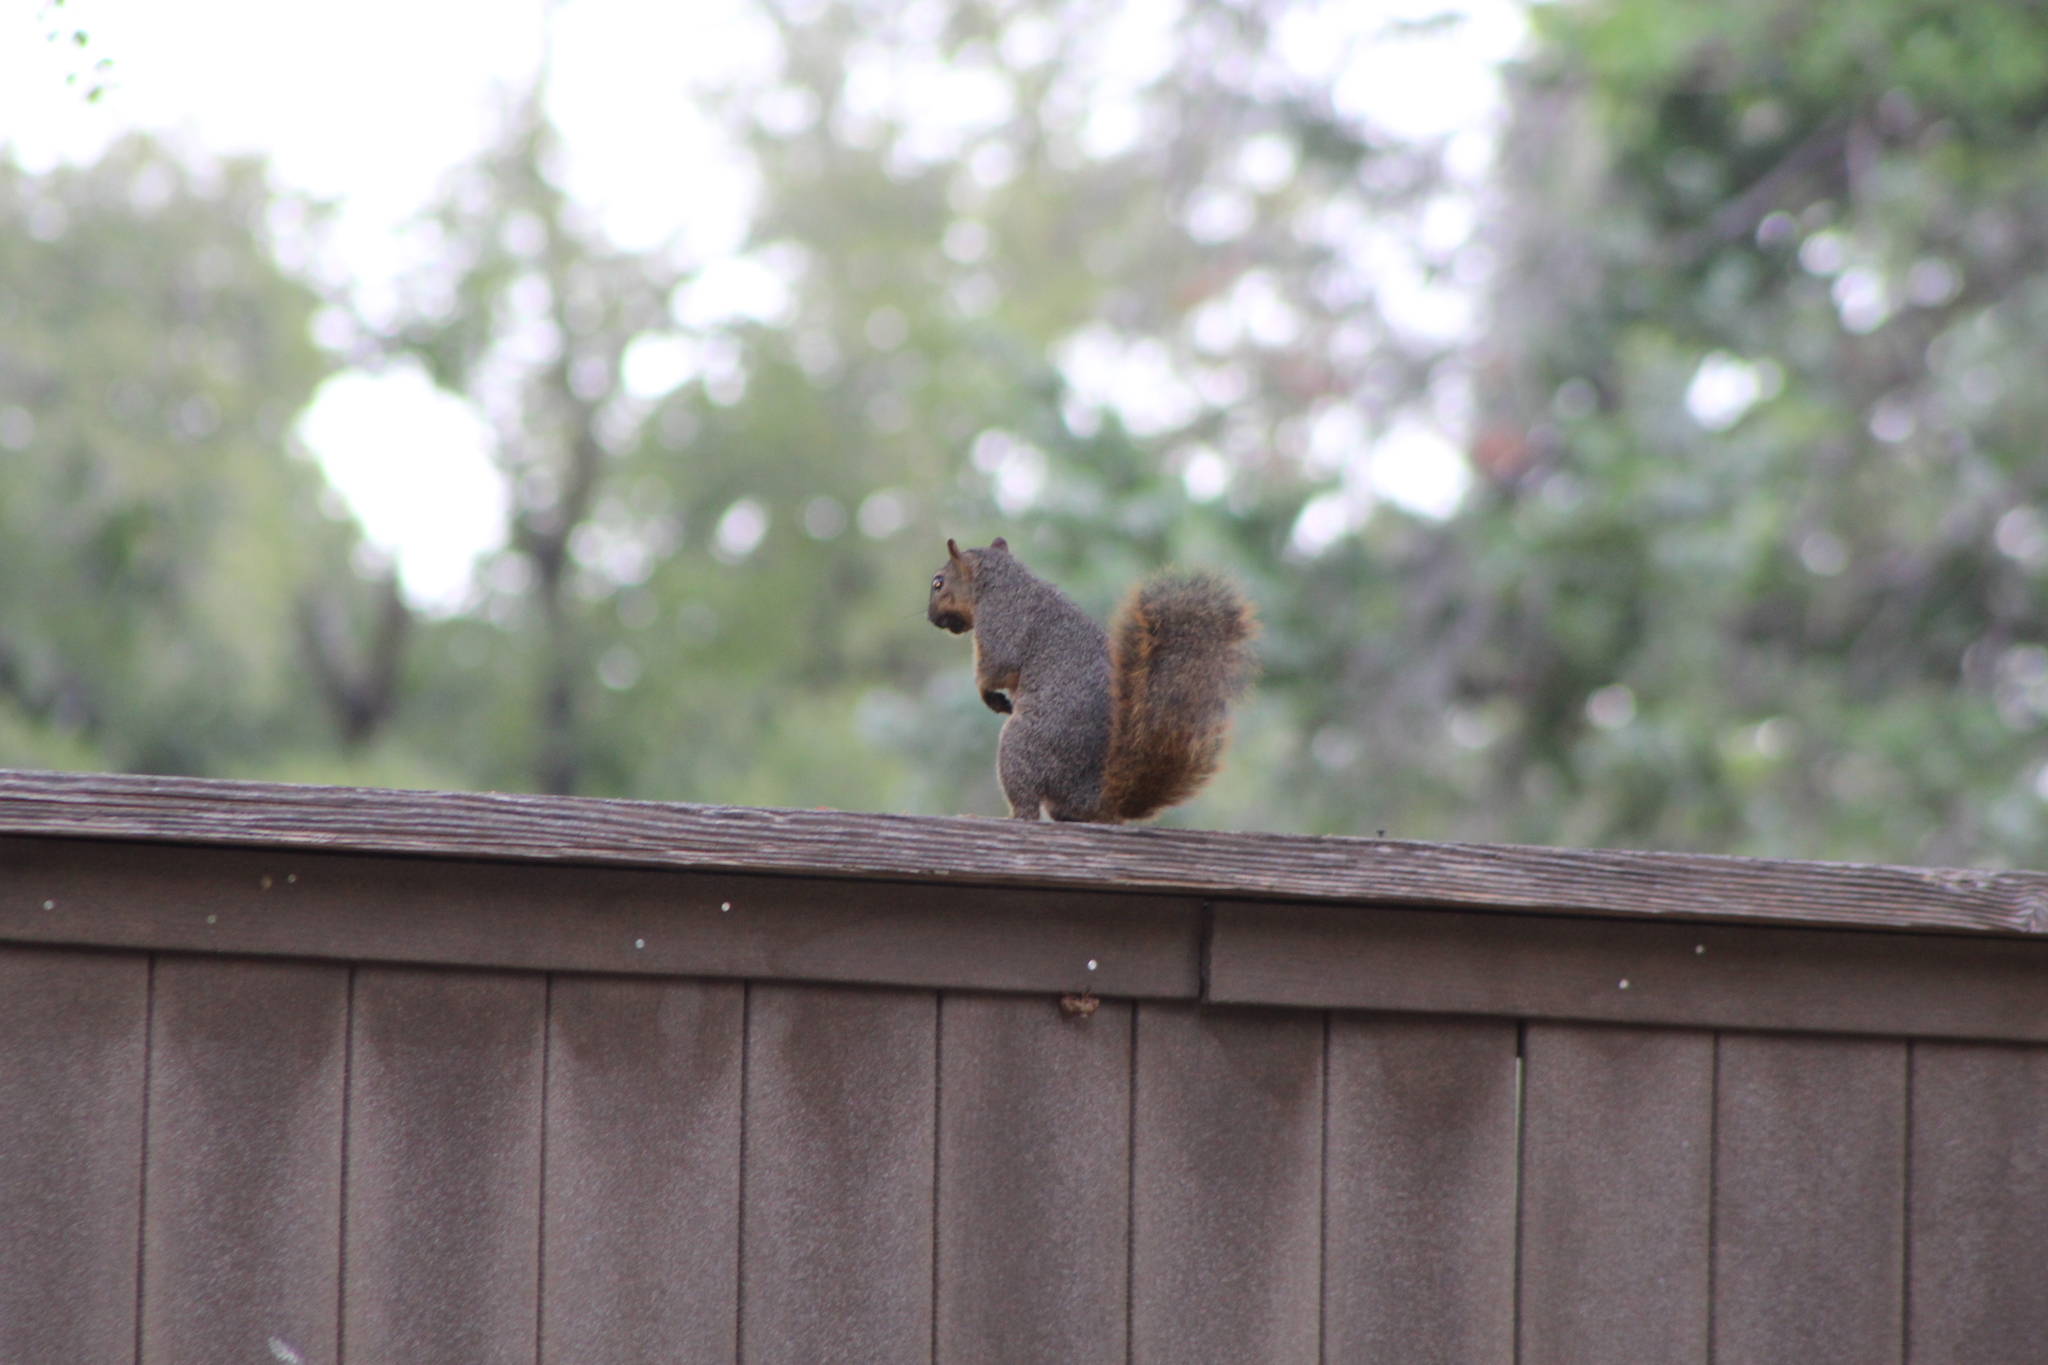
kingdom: Animalia
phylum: Chordata
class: Mammalia
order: Rodentia
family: Sciuridae
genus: Sciurus
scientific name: Sciurus niger
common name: Fox squirrel
